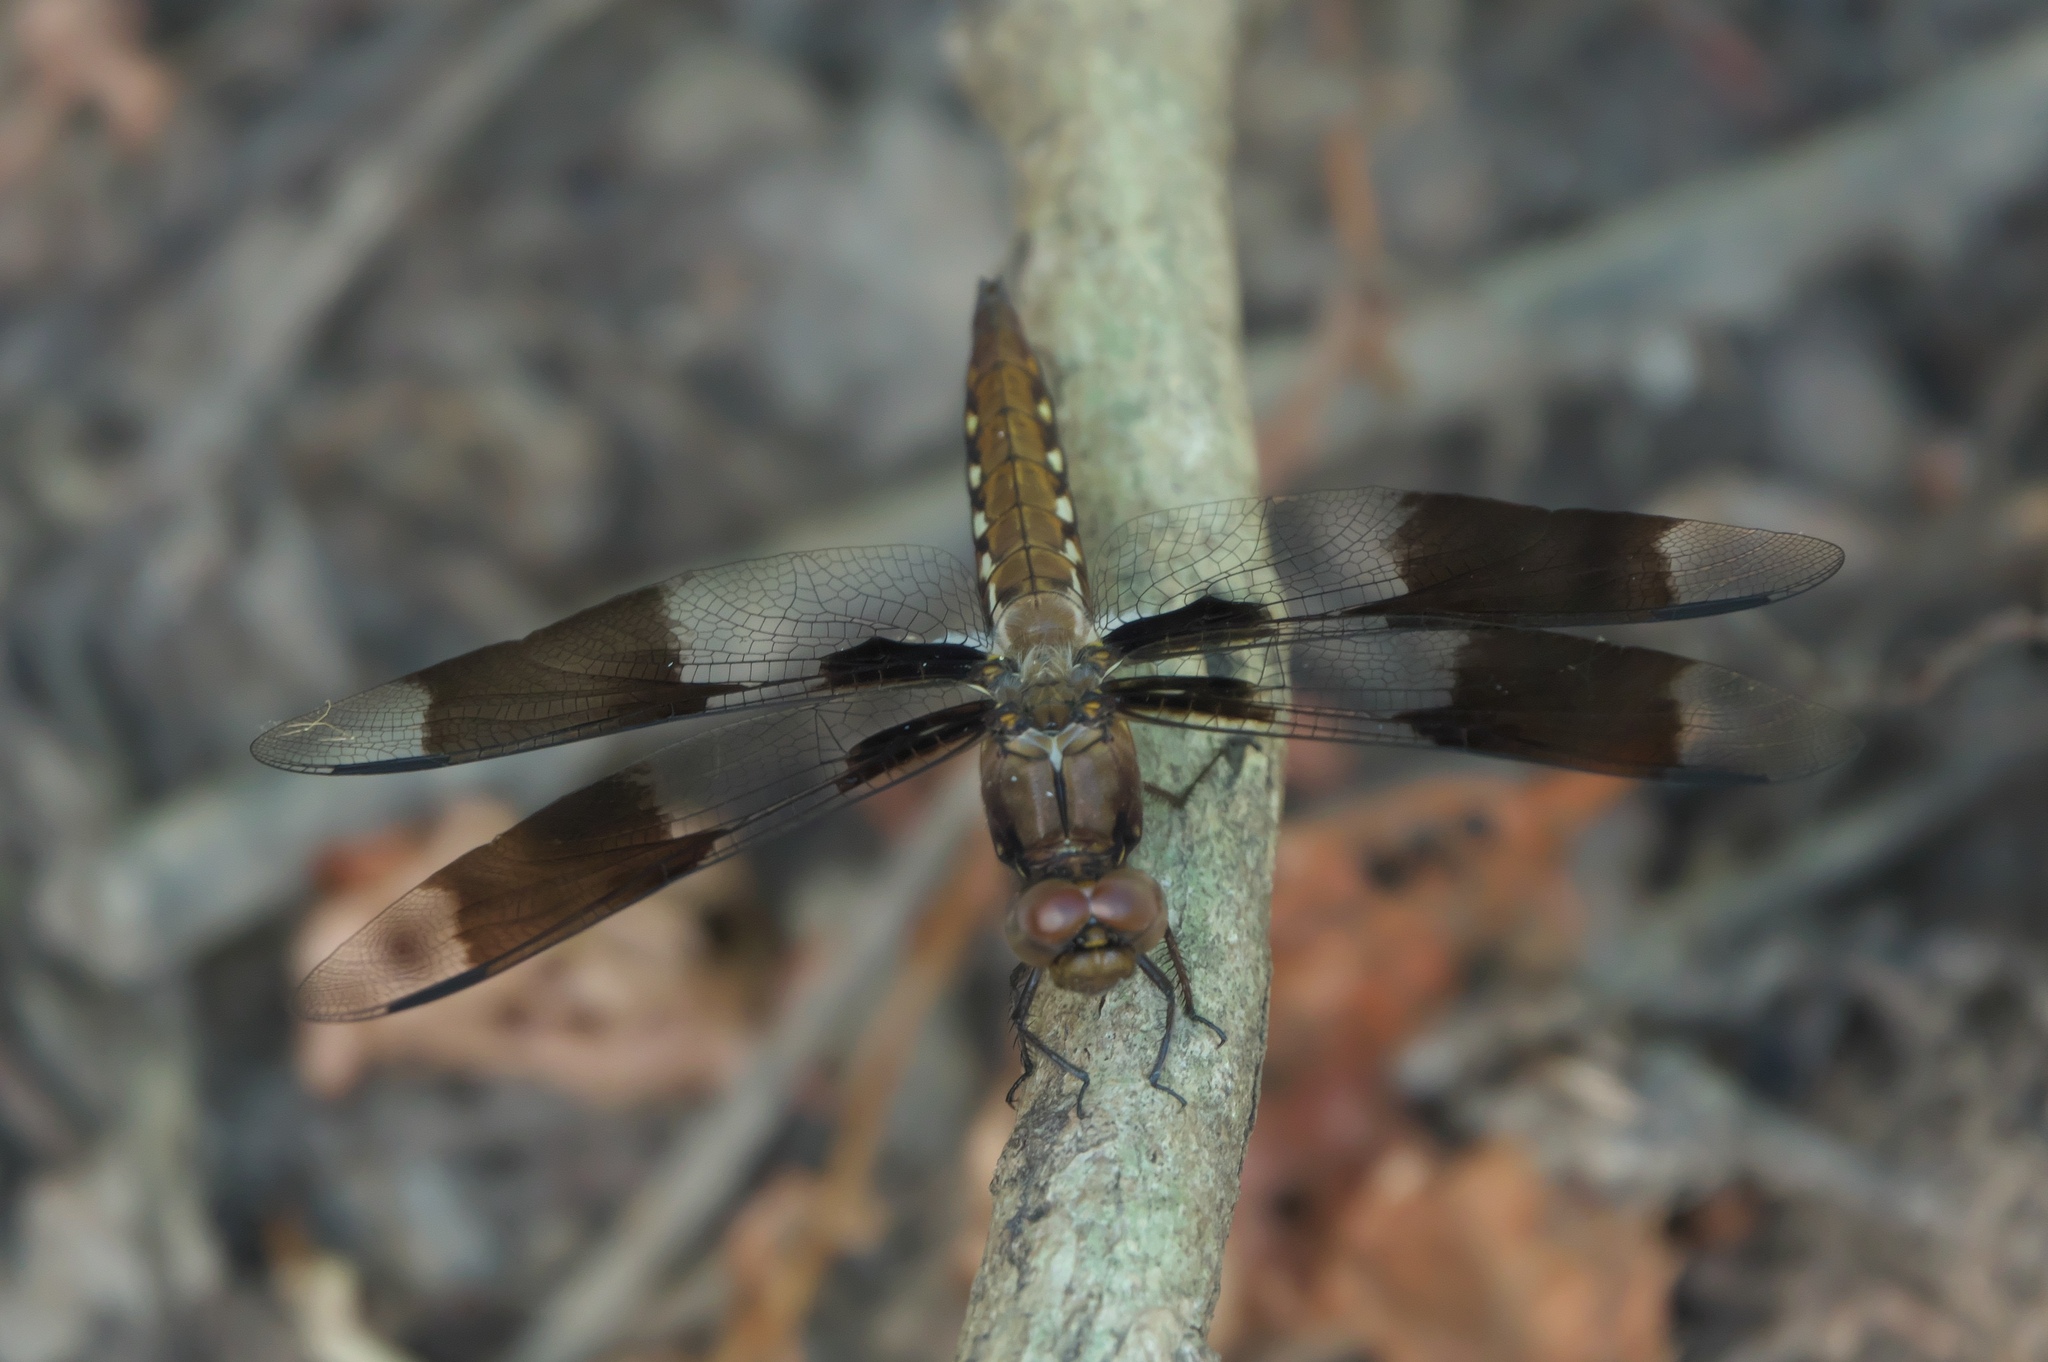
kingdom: Animalia
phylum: Arthropoda
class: Insecta
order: Odonata
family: Libellulidae
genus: Plathemis
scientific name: Plathemis lydia
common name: Common whitetail
